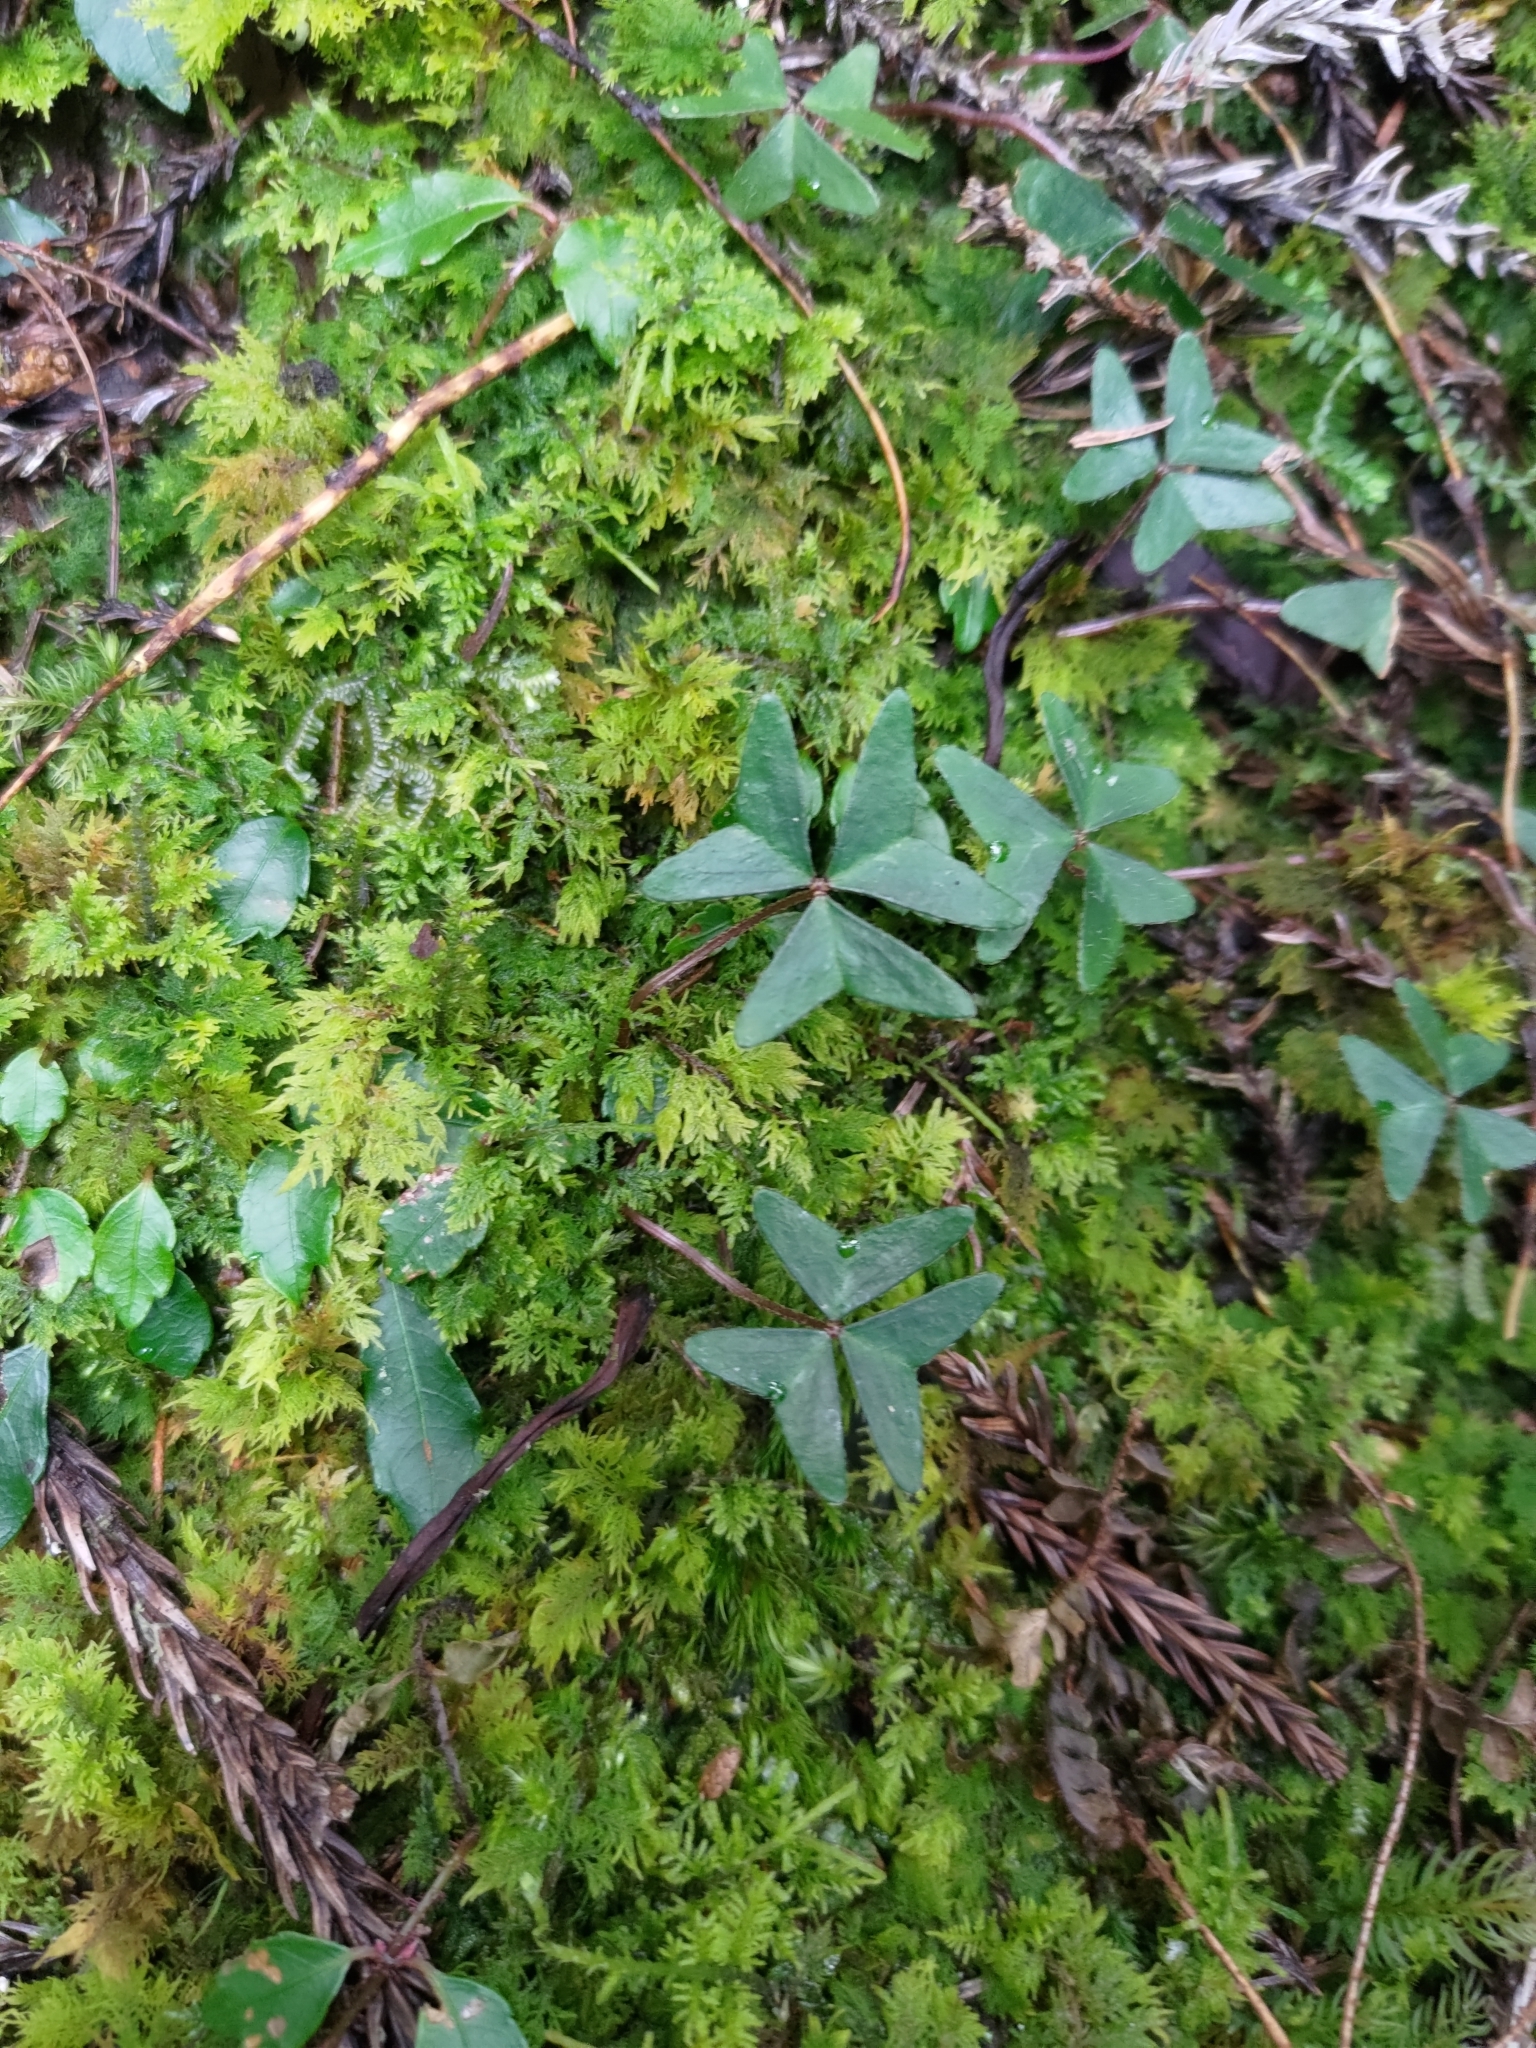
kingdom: Plantae
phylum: Tracheophyta
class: Magnoliopsida
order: Oxalidales
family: Oxalidaceae
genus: Oxalis
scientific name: Oxalis griffithii
